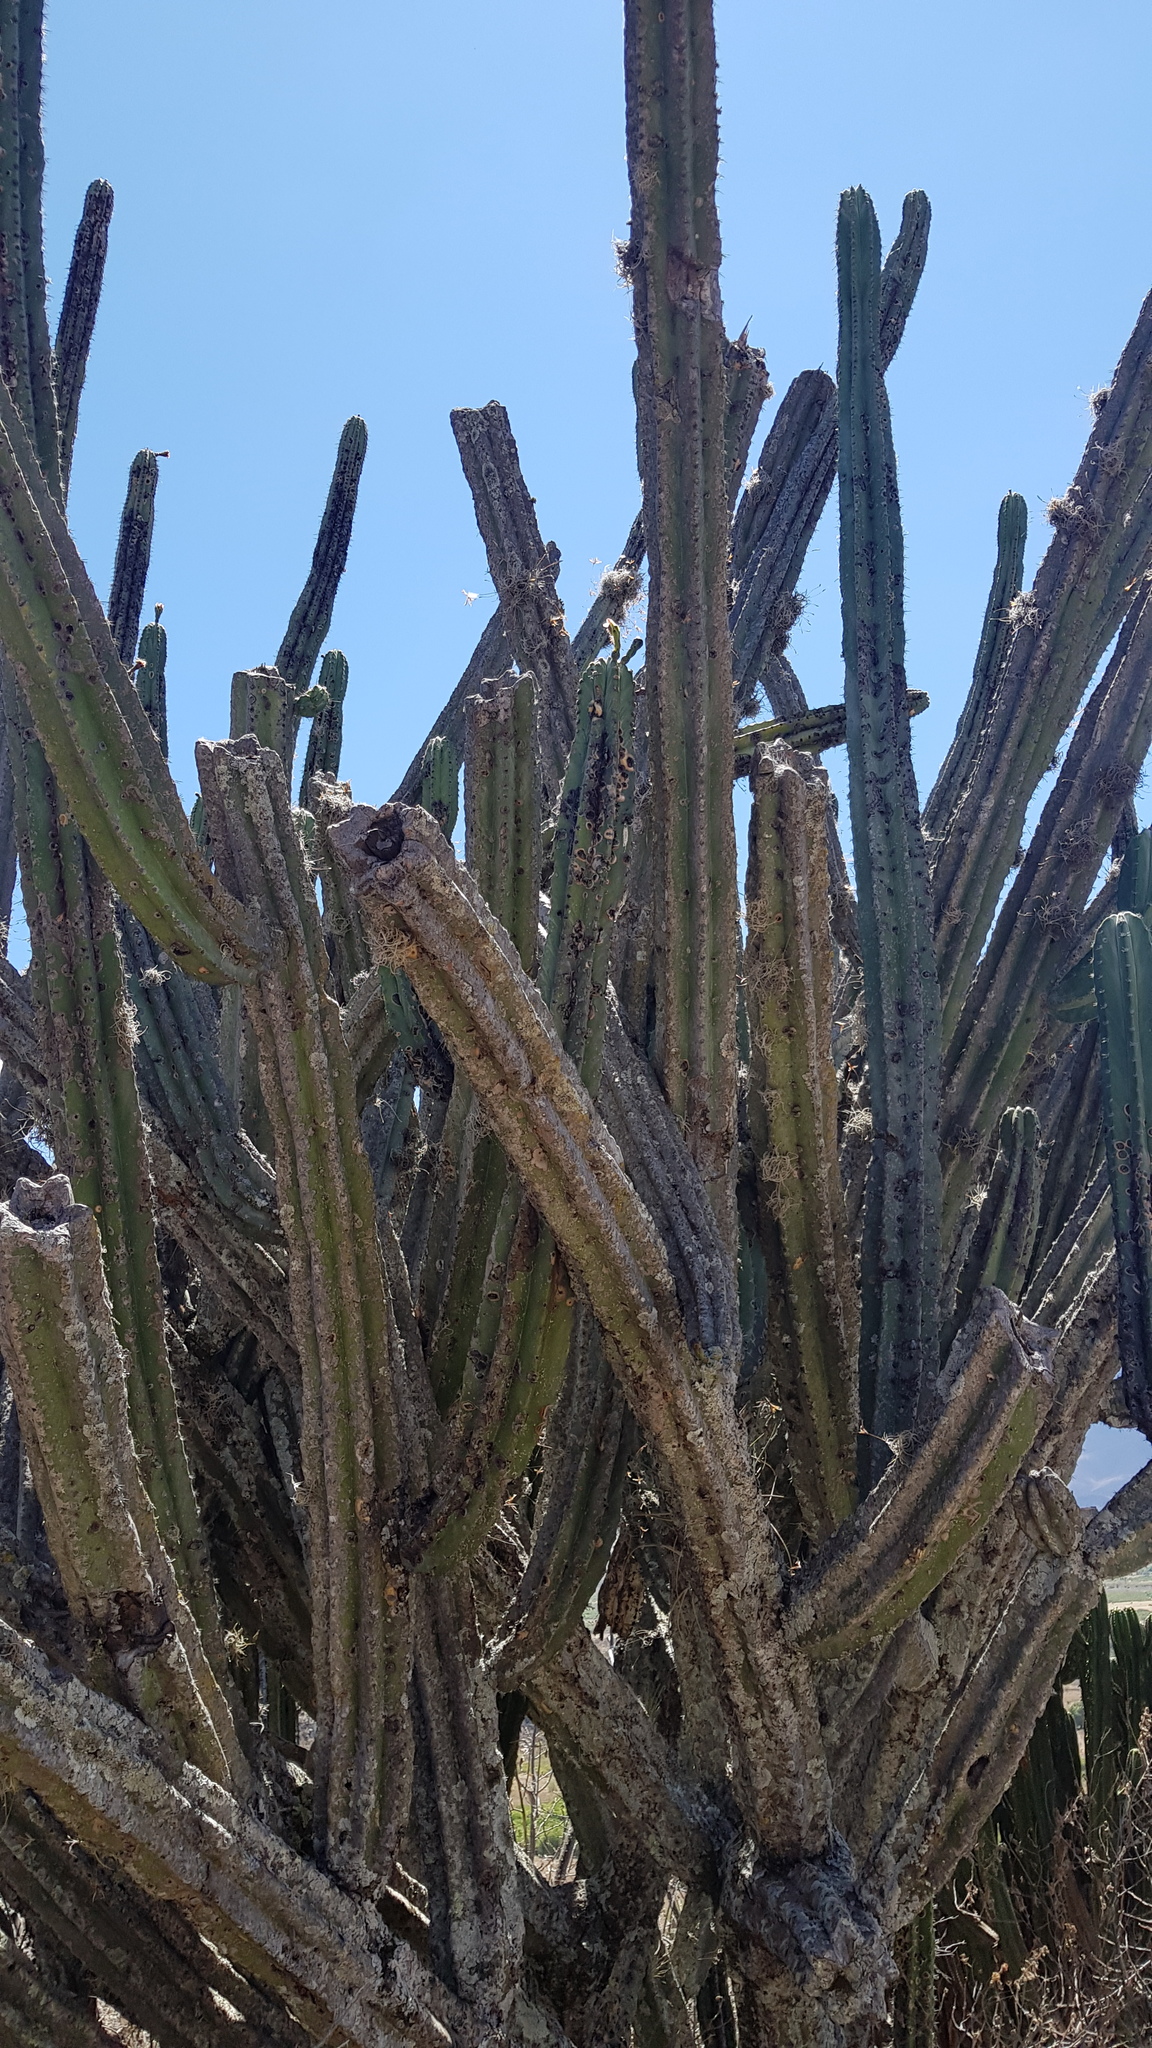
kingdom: Plantae
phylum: Tracheophyta
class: Magnoliopsida
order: Caryophyllales
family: Cactaceae
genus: Stenocereus
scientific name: Stenocereus pruinosus
